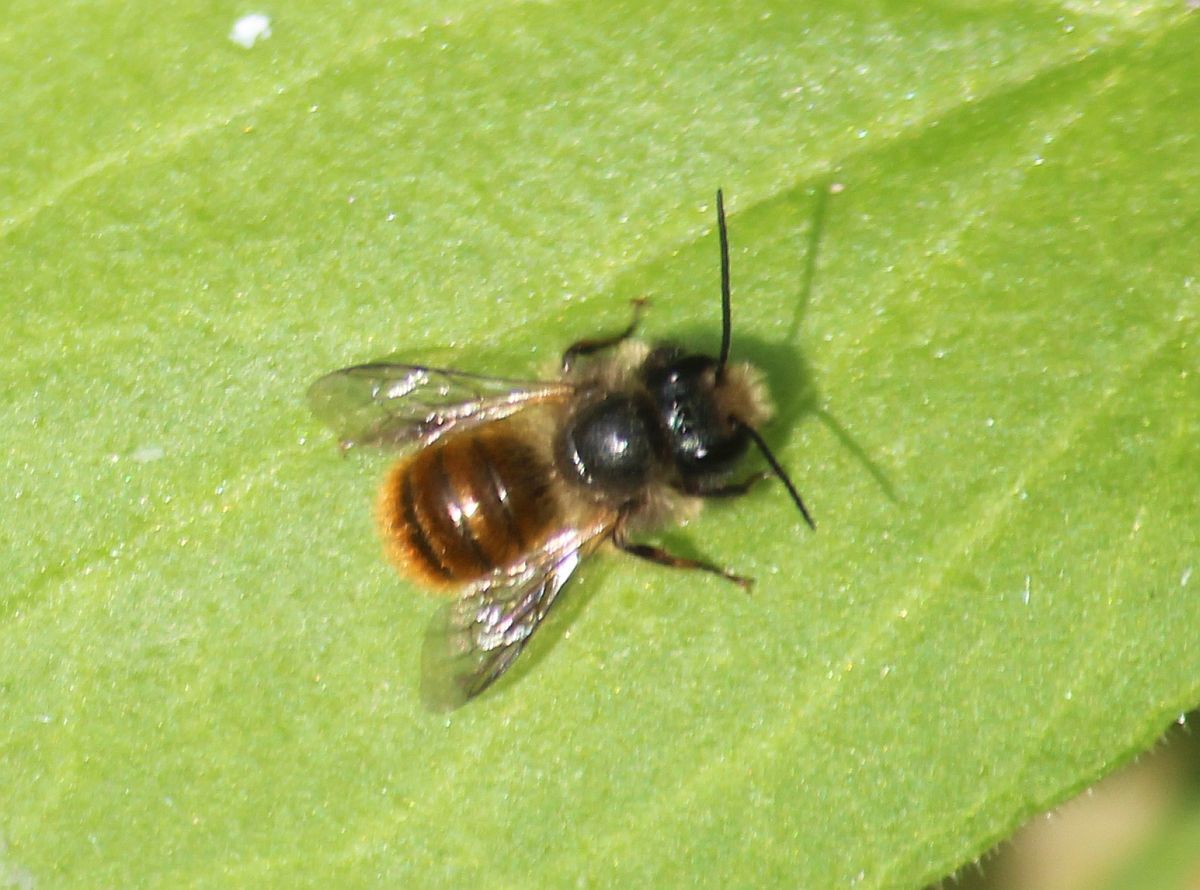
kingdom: Animalia
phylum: Arthropoda
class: Insecta
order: Hymenoptera
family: Megachilidae
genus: Osmia
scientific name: Osmia bicornis
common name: Red mason bee
